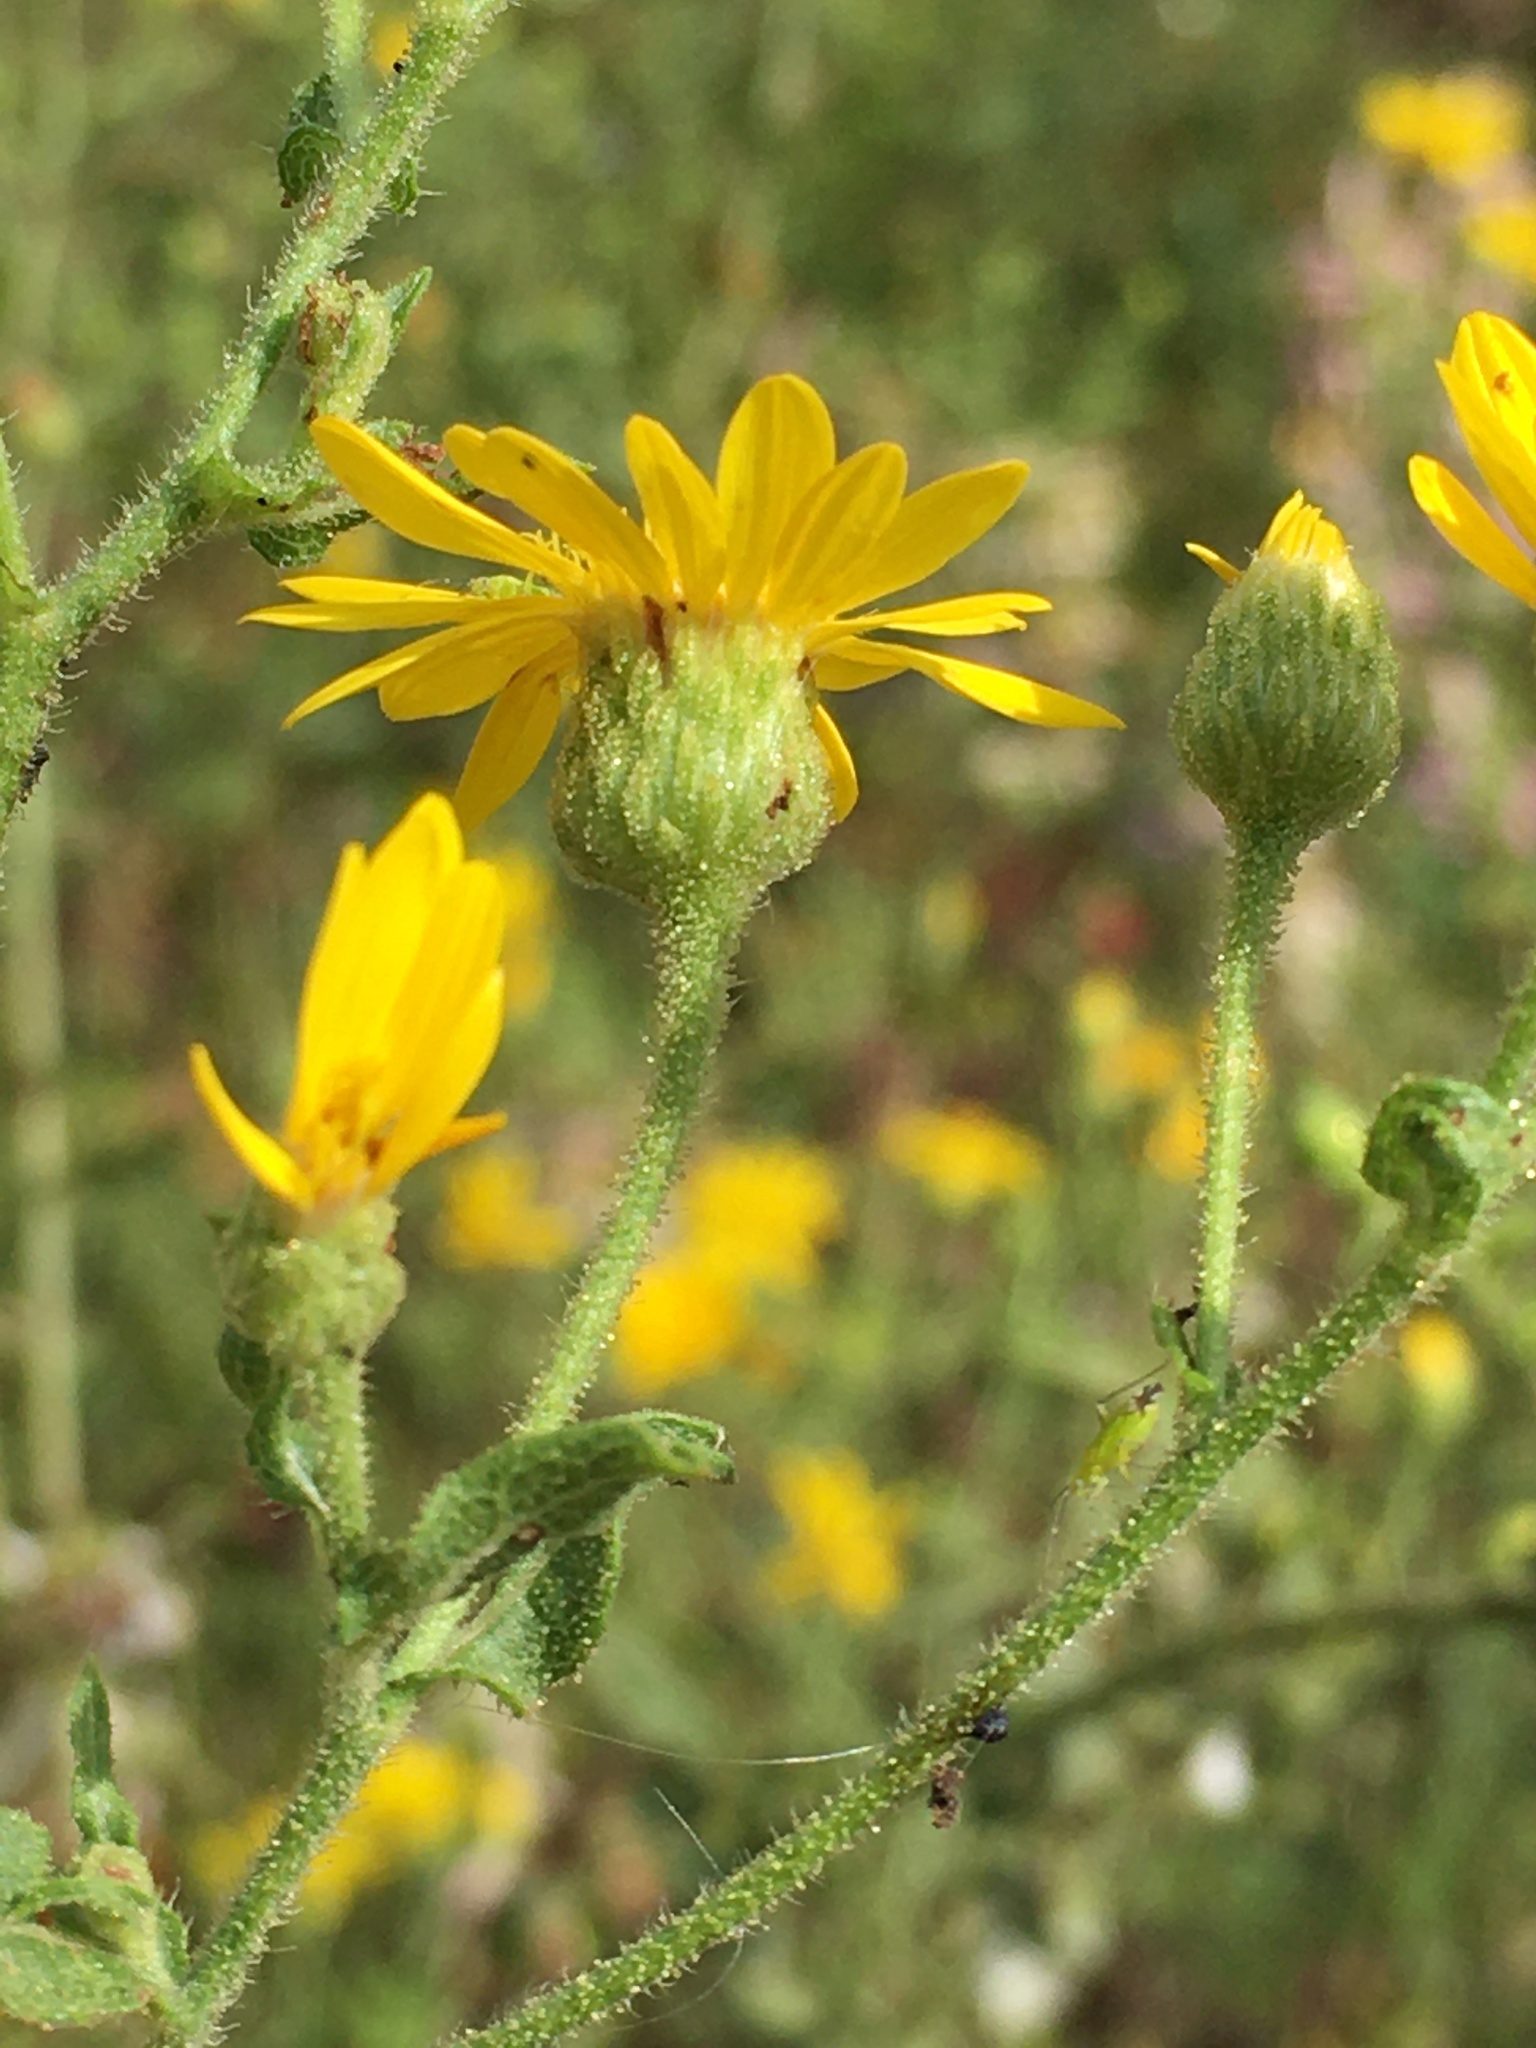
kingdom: Plantae
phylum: Tracheophyta
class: Magnoliopsida
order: Asterales
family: Asteraceae
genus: Heterotheca
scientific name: Heterotheca subaxillaris
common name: Camphorweed
